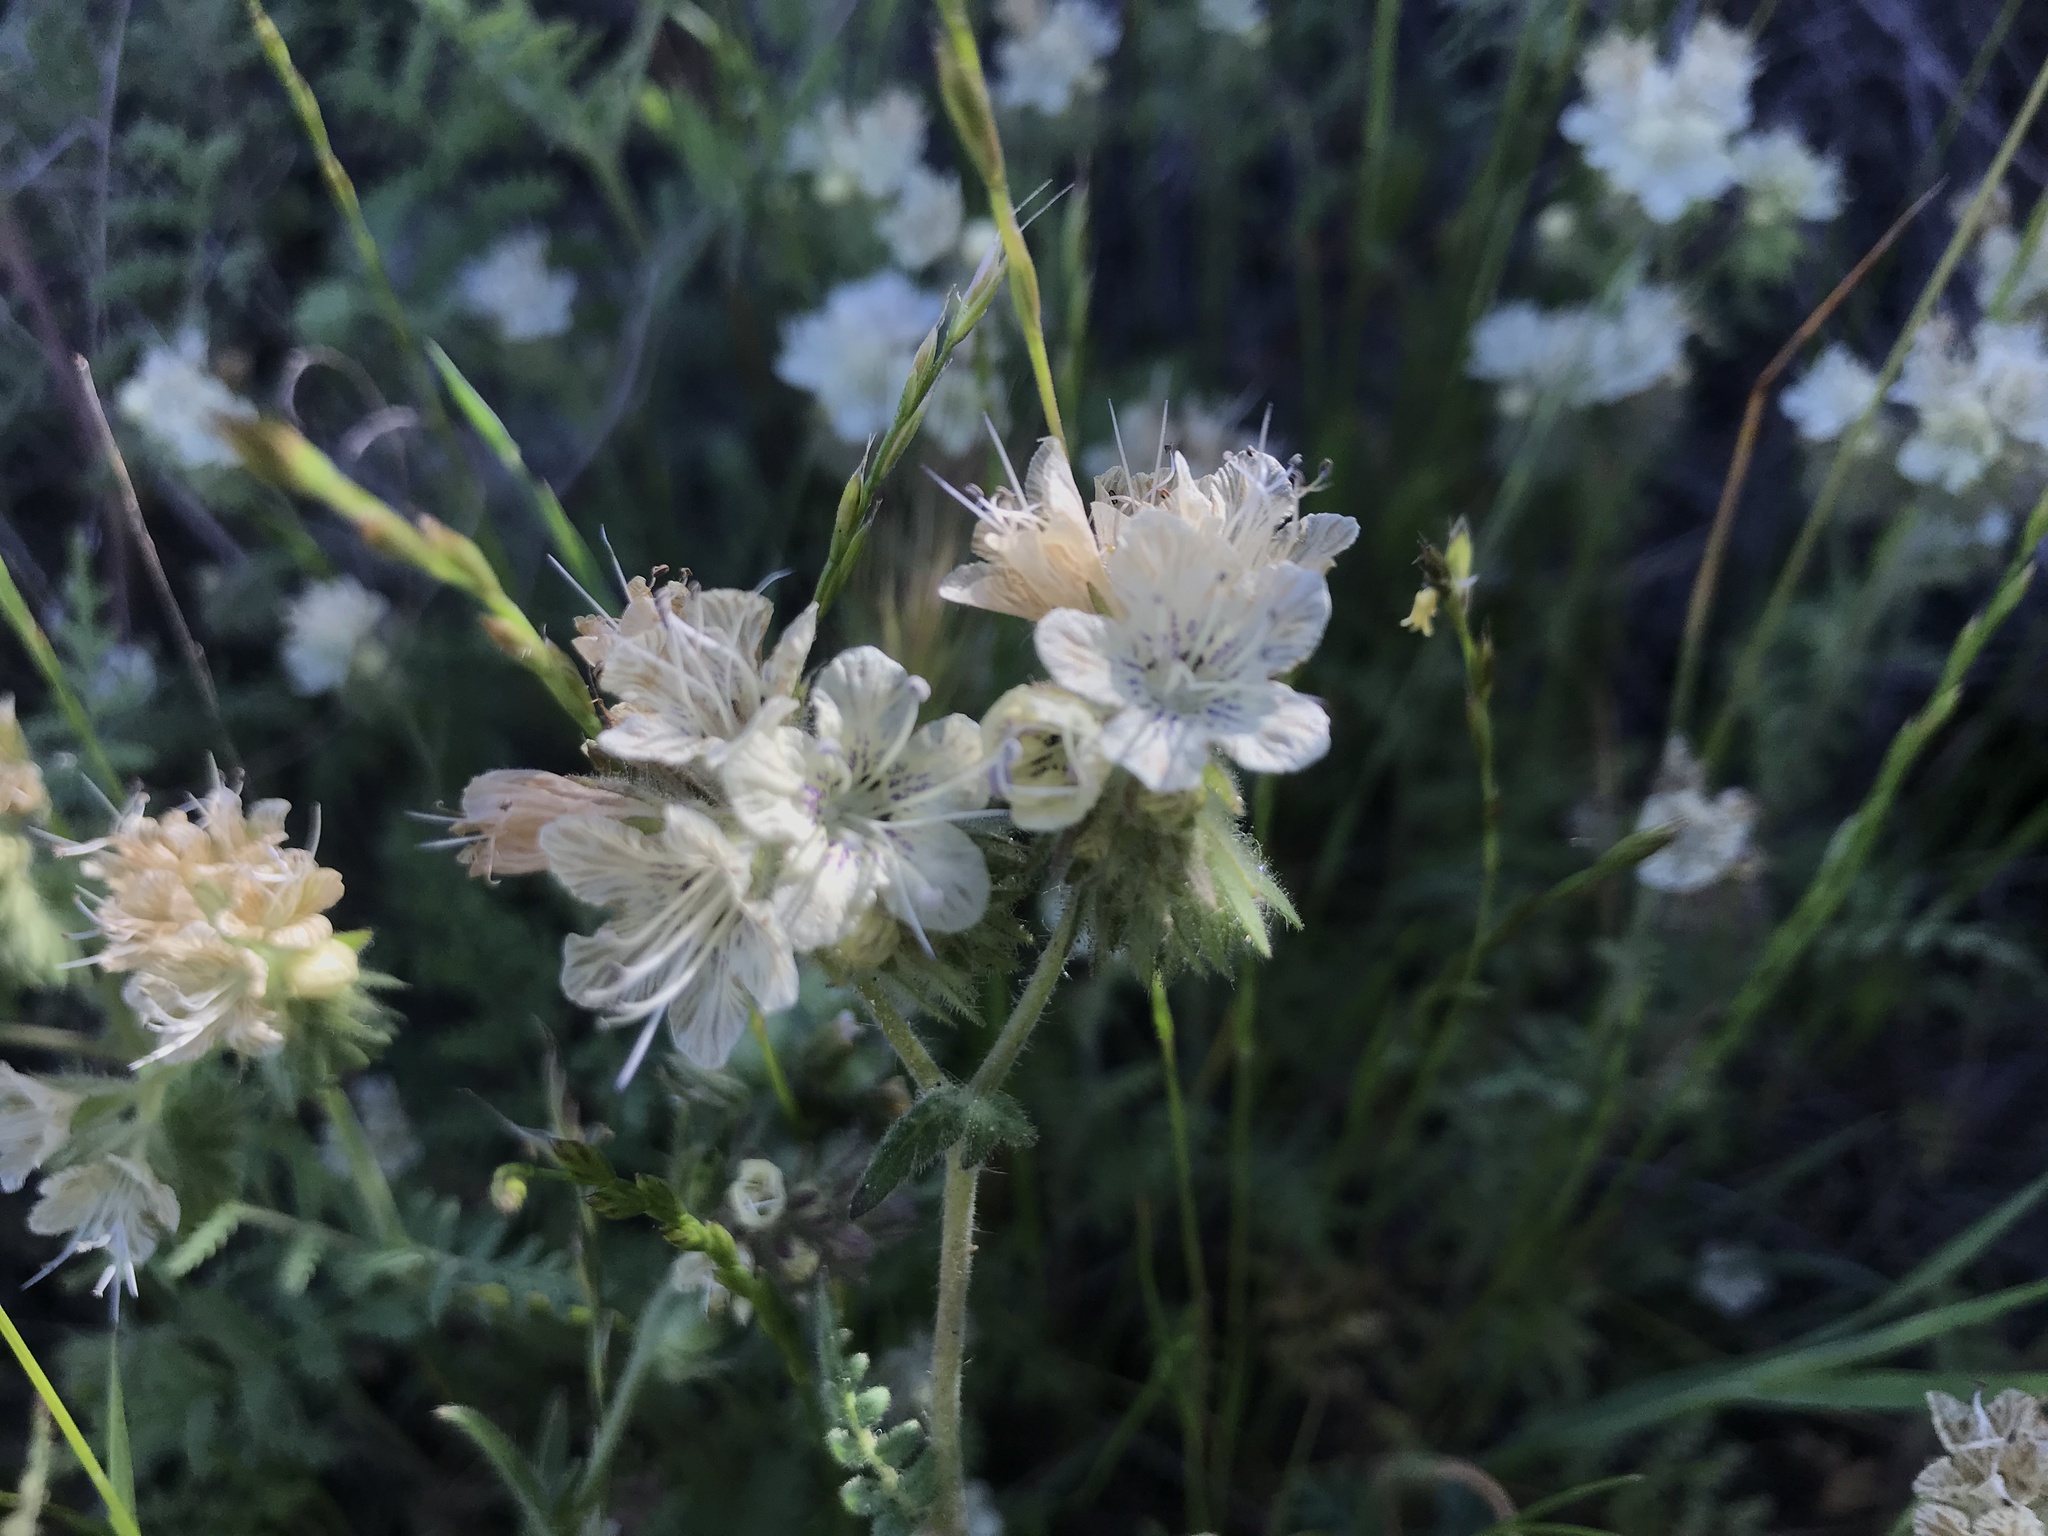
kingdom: Plantae
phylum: Tracheophyta
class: Magnoliopsida
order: Boraginales
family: Hydrophyllaceae
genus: Phacelia
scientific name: Phacelia distans
